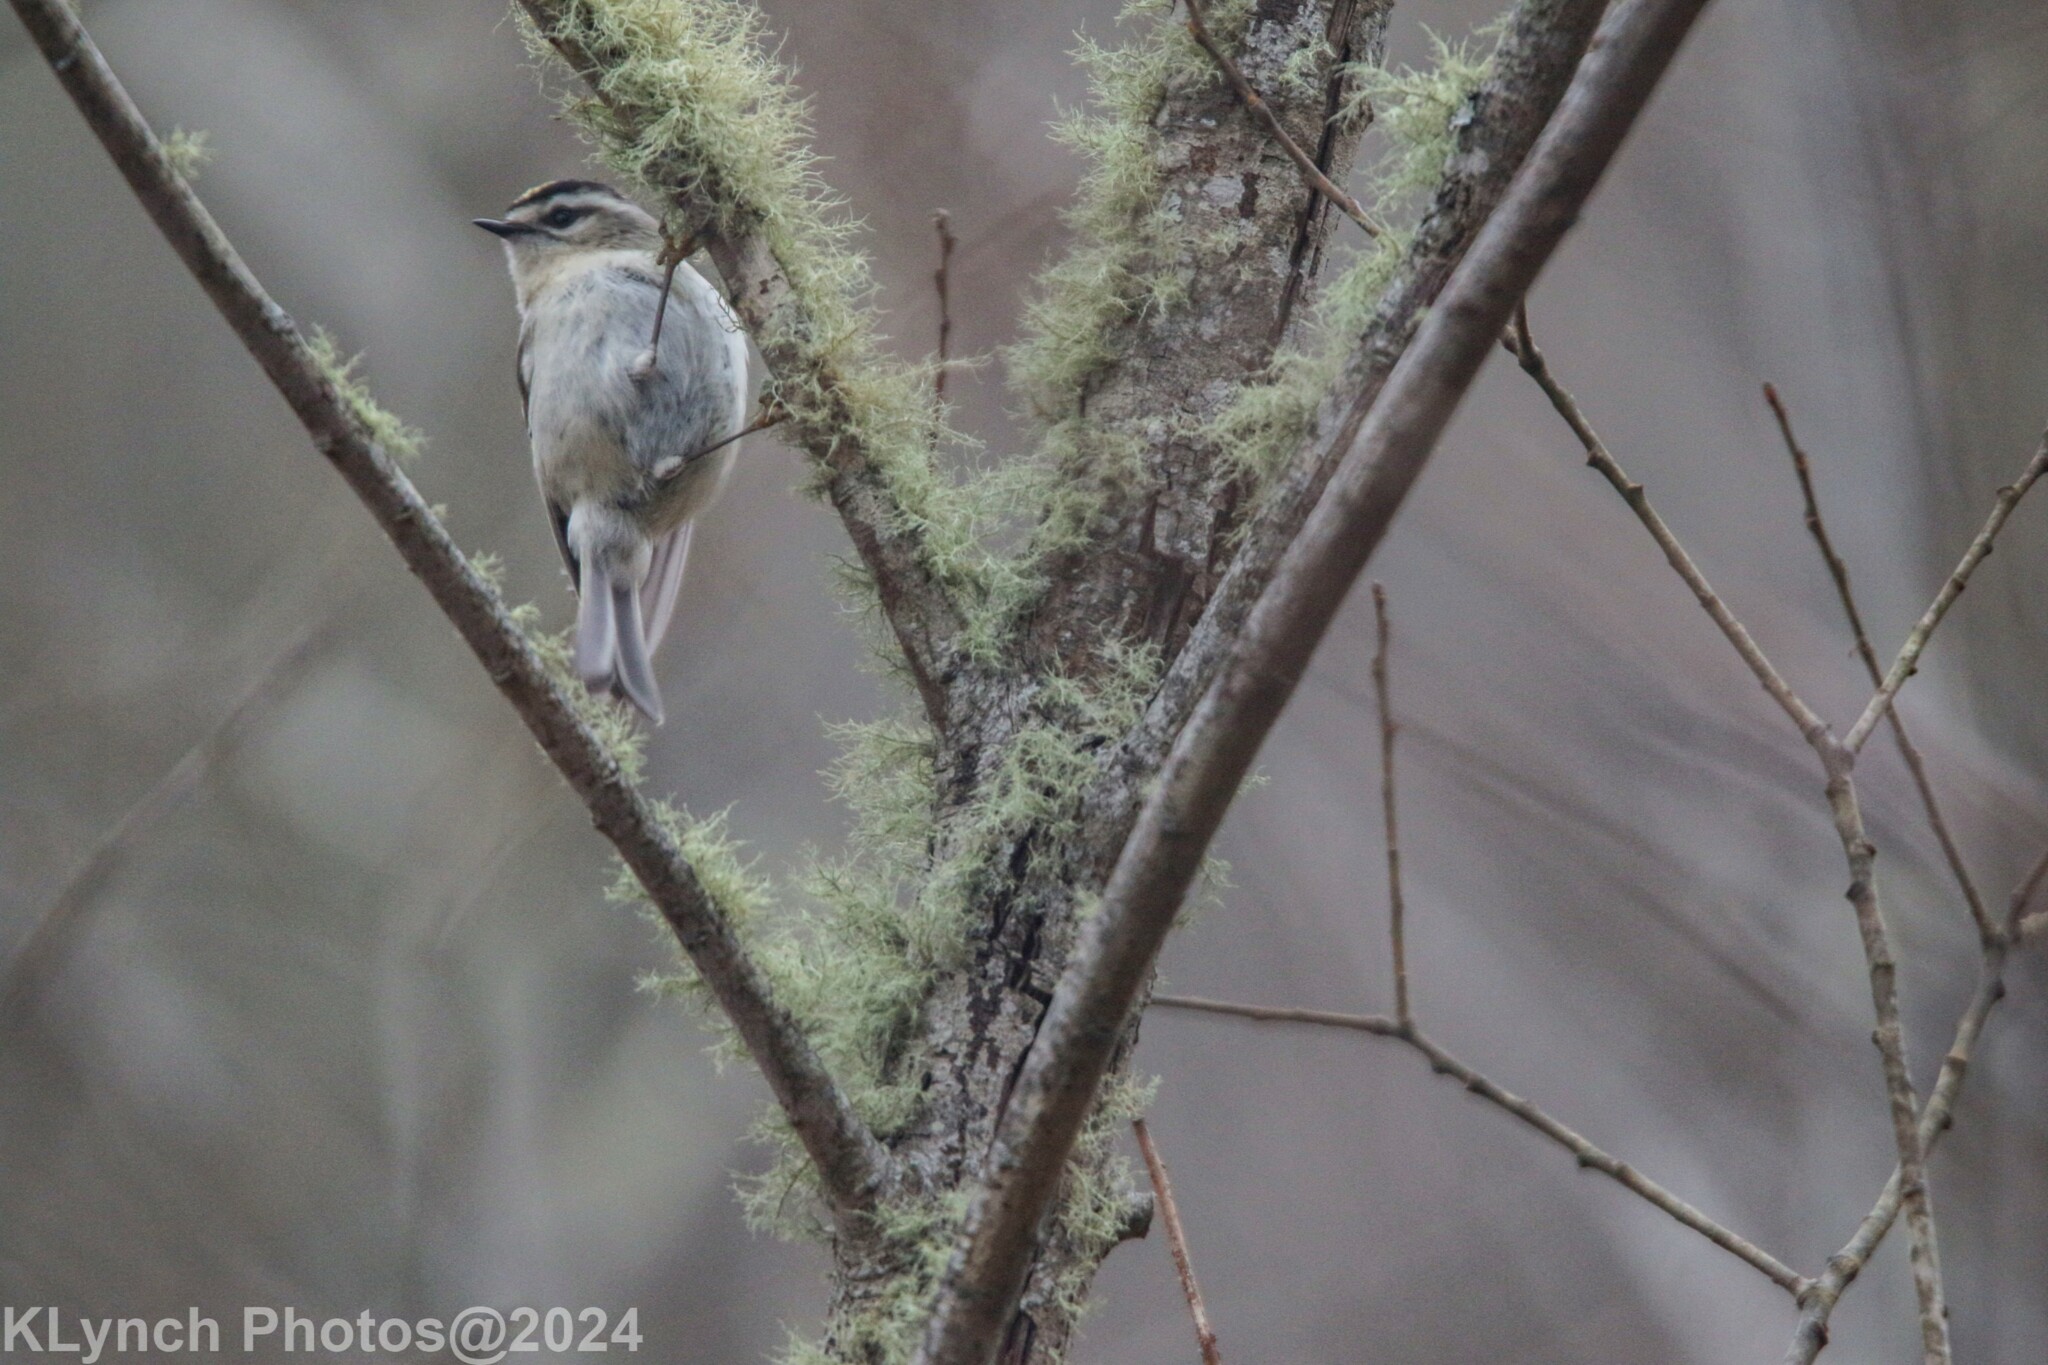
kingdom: Animalia
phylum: Chordata
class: Aves
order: Passeriformes
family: Regulidae
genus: Regulus
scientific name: Regulus satrapa
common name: Golden-crowned kinglet
